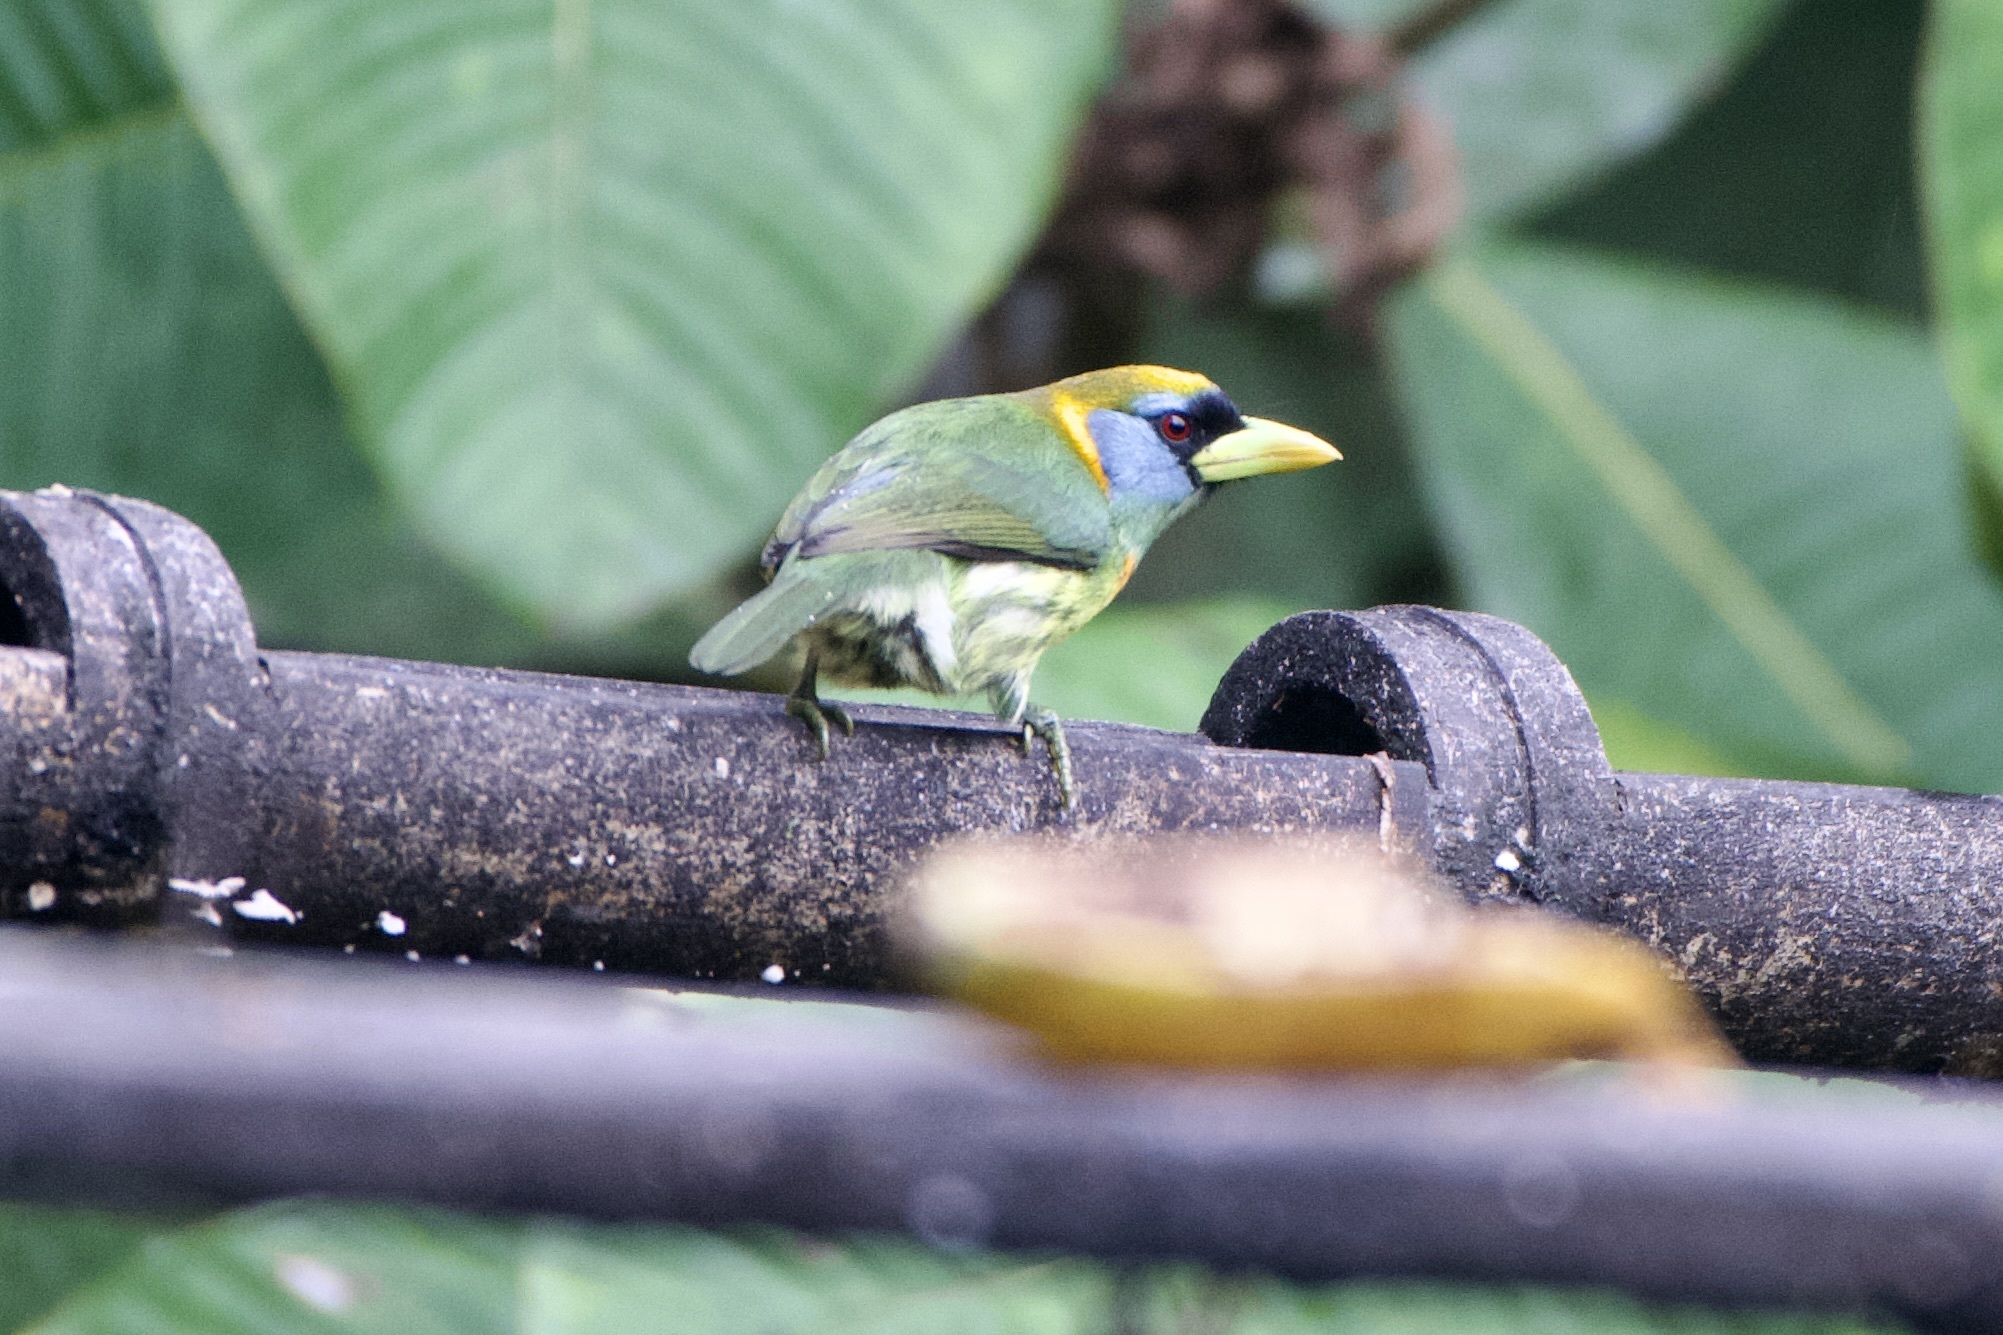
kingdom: Animalia
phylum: Chordata
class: Aves
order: Piciformes
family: Capitonidae
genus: Eubucco
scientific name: Eubucco bourcierii
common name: Red-headed barbet
